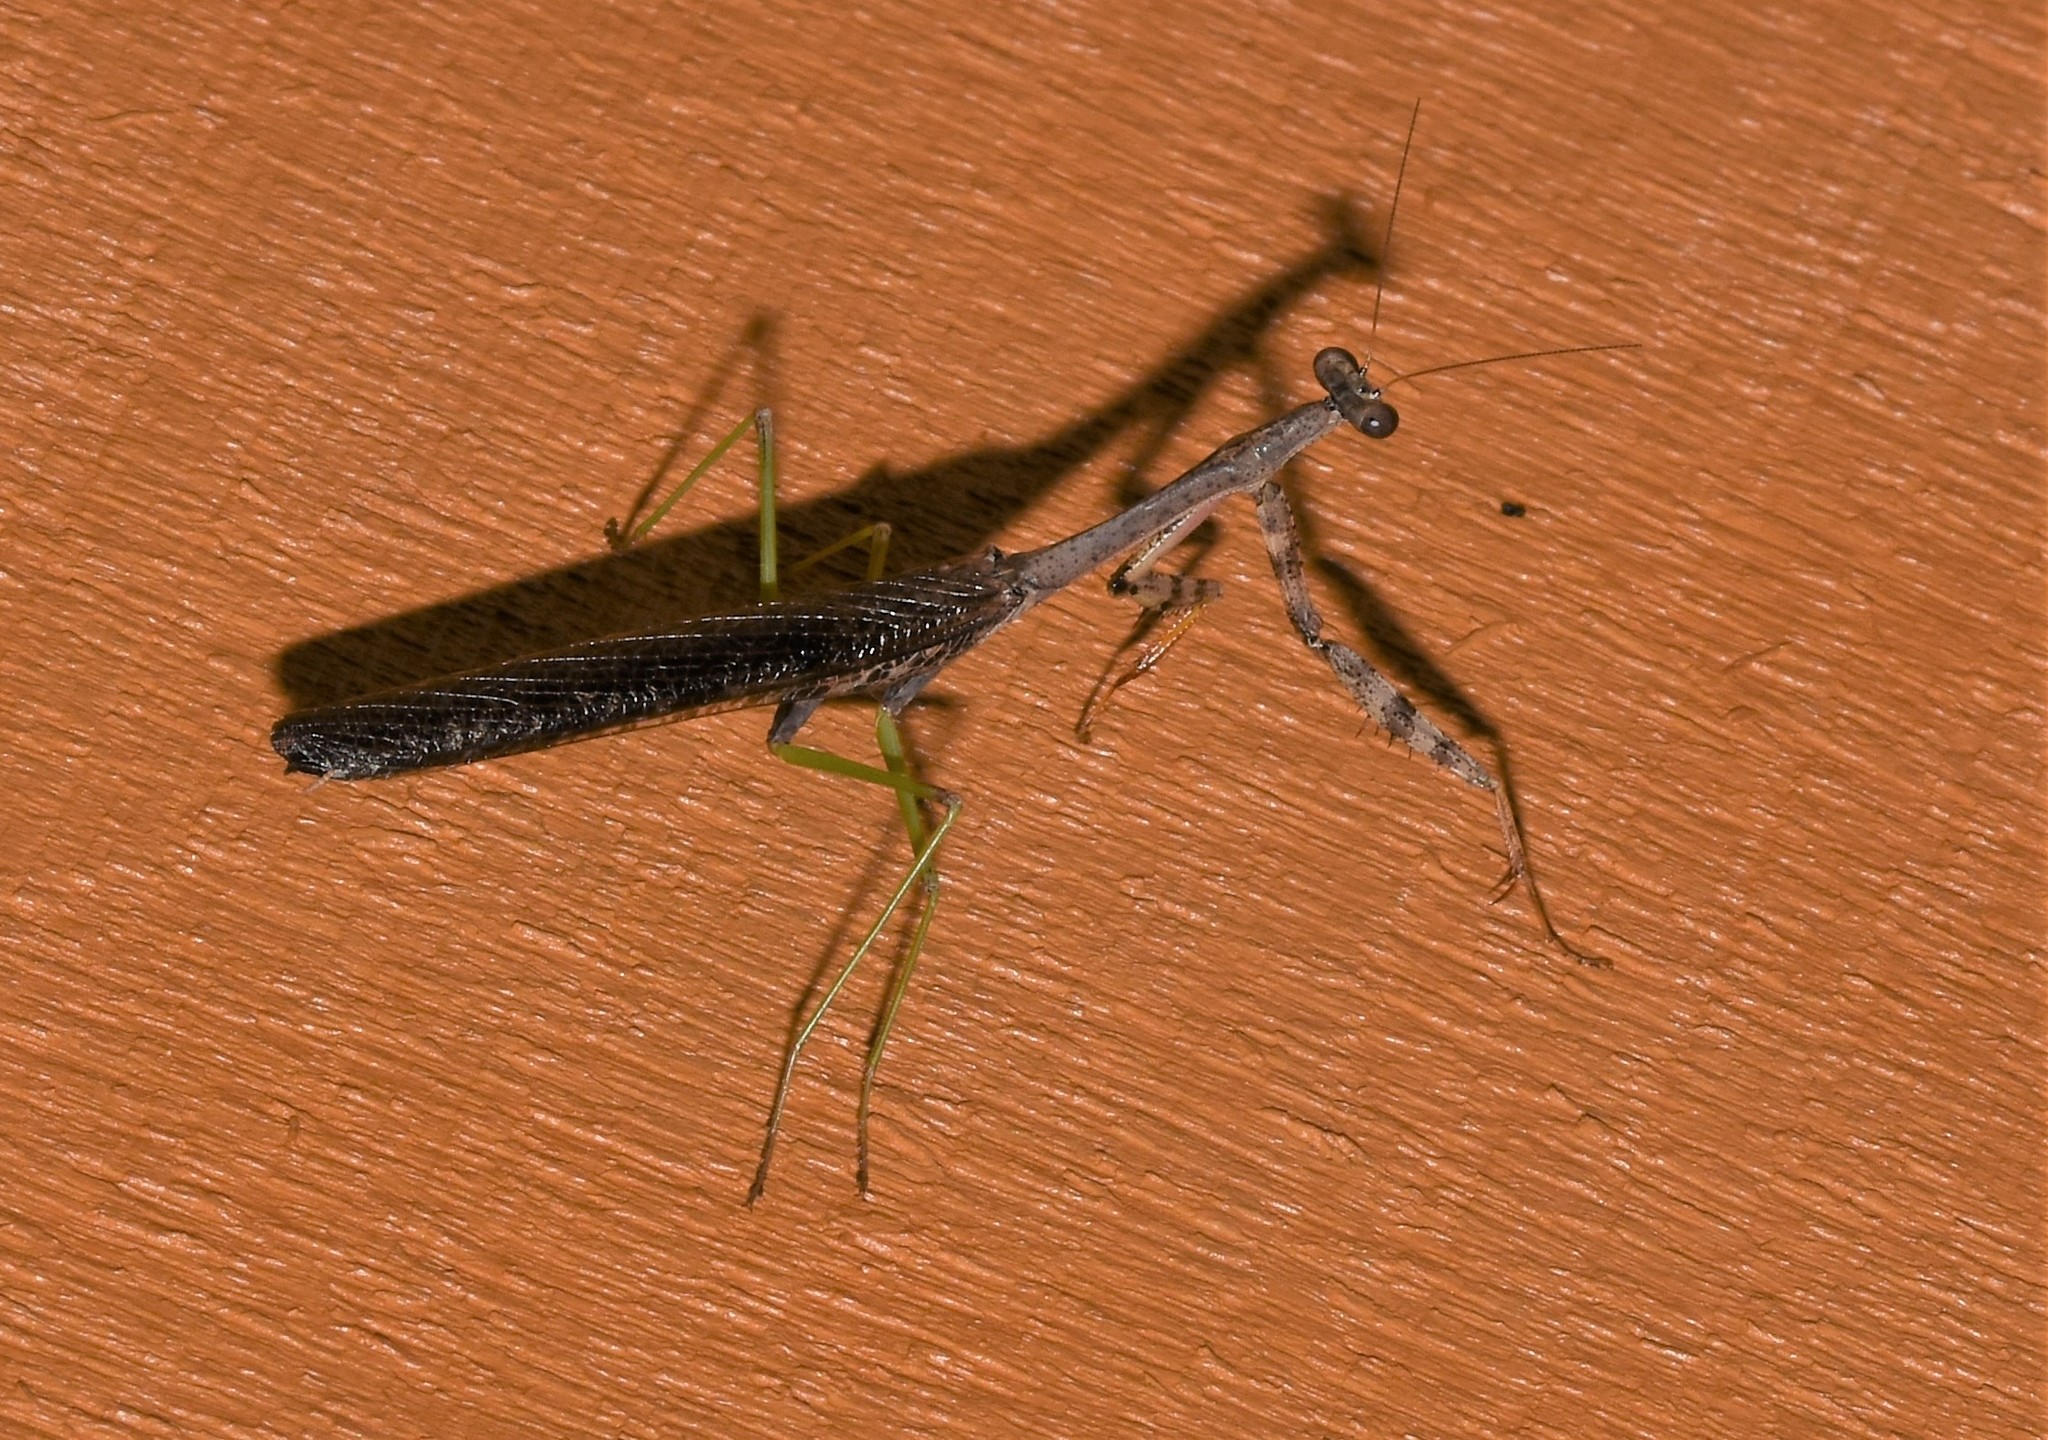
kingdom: Animalia
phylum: Arthropoda
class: Insecta
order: Mantodea
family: Mantidae
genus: Stagmomantis
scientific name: Stagmomantis carolina
